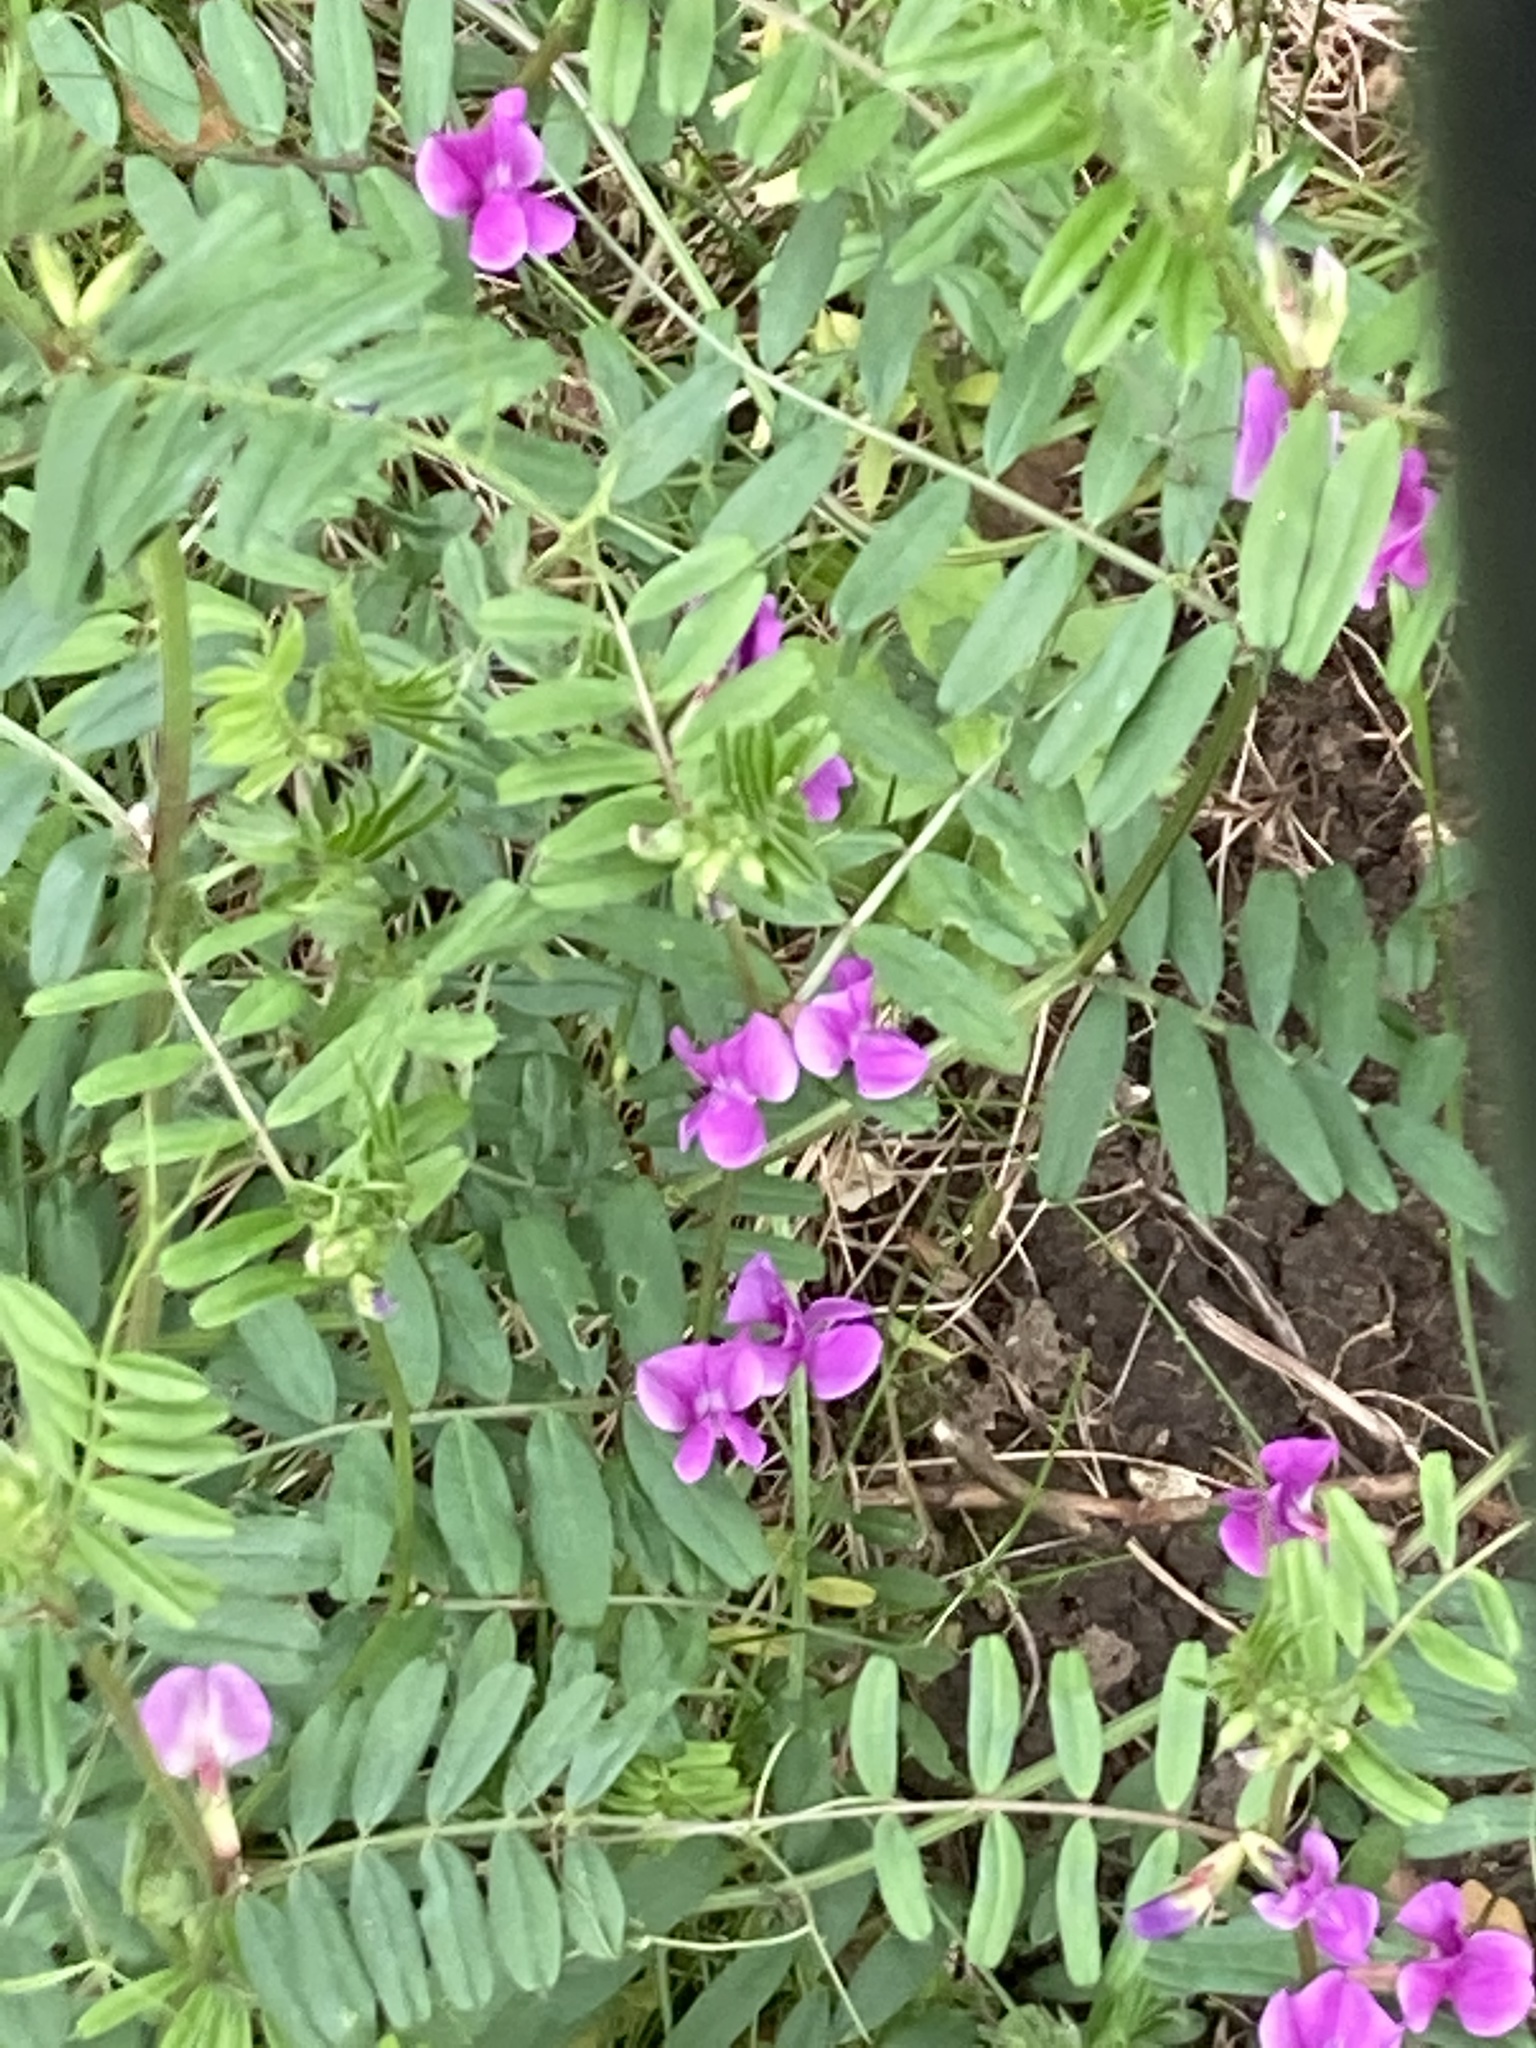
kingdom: Plantae
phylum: Tracheophyta
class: Magnoliopsida
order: Fabales
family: Fabaceae
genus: Vicia
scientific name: Vicia sativa
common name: Garden vetch
